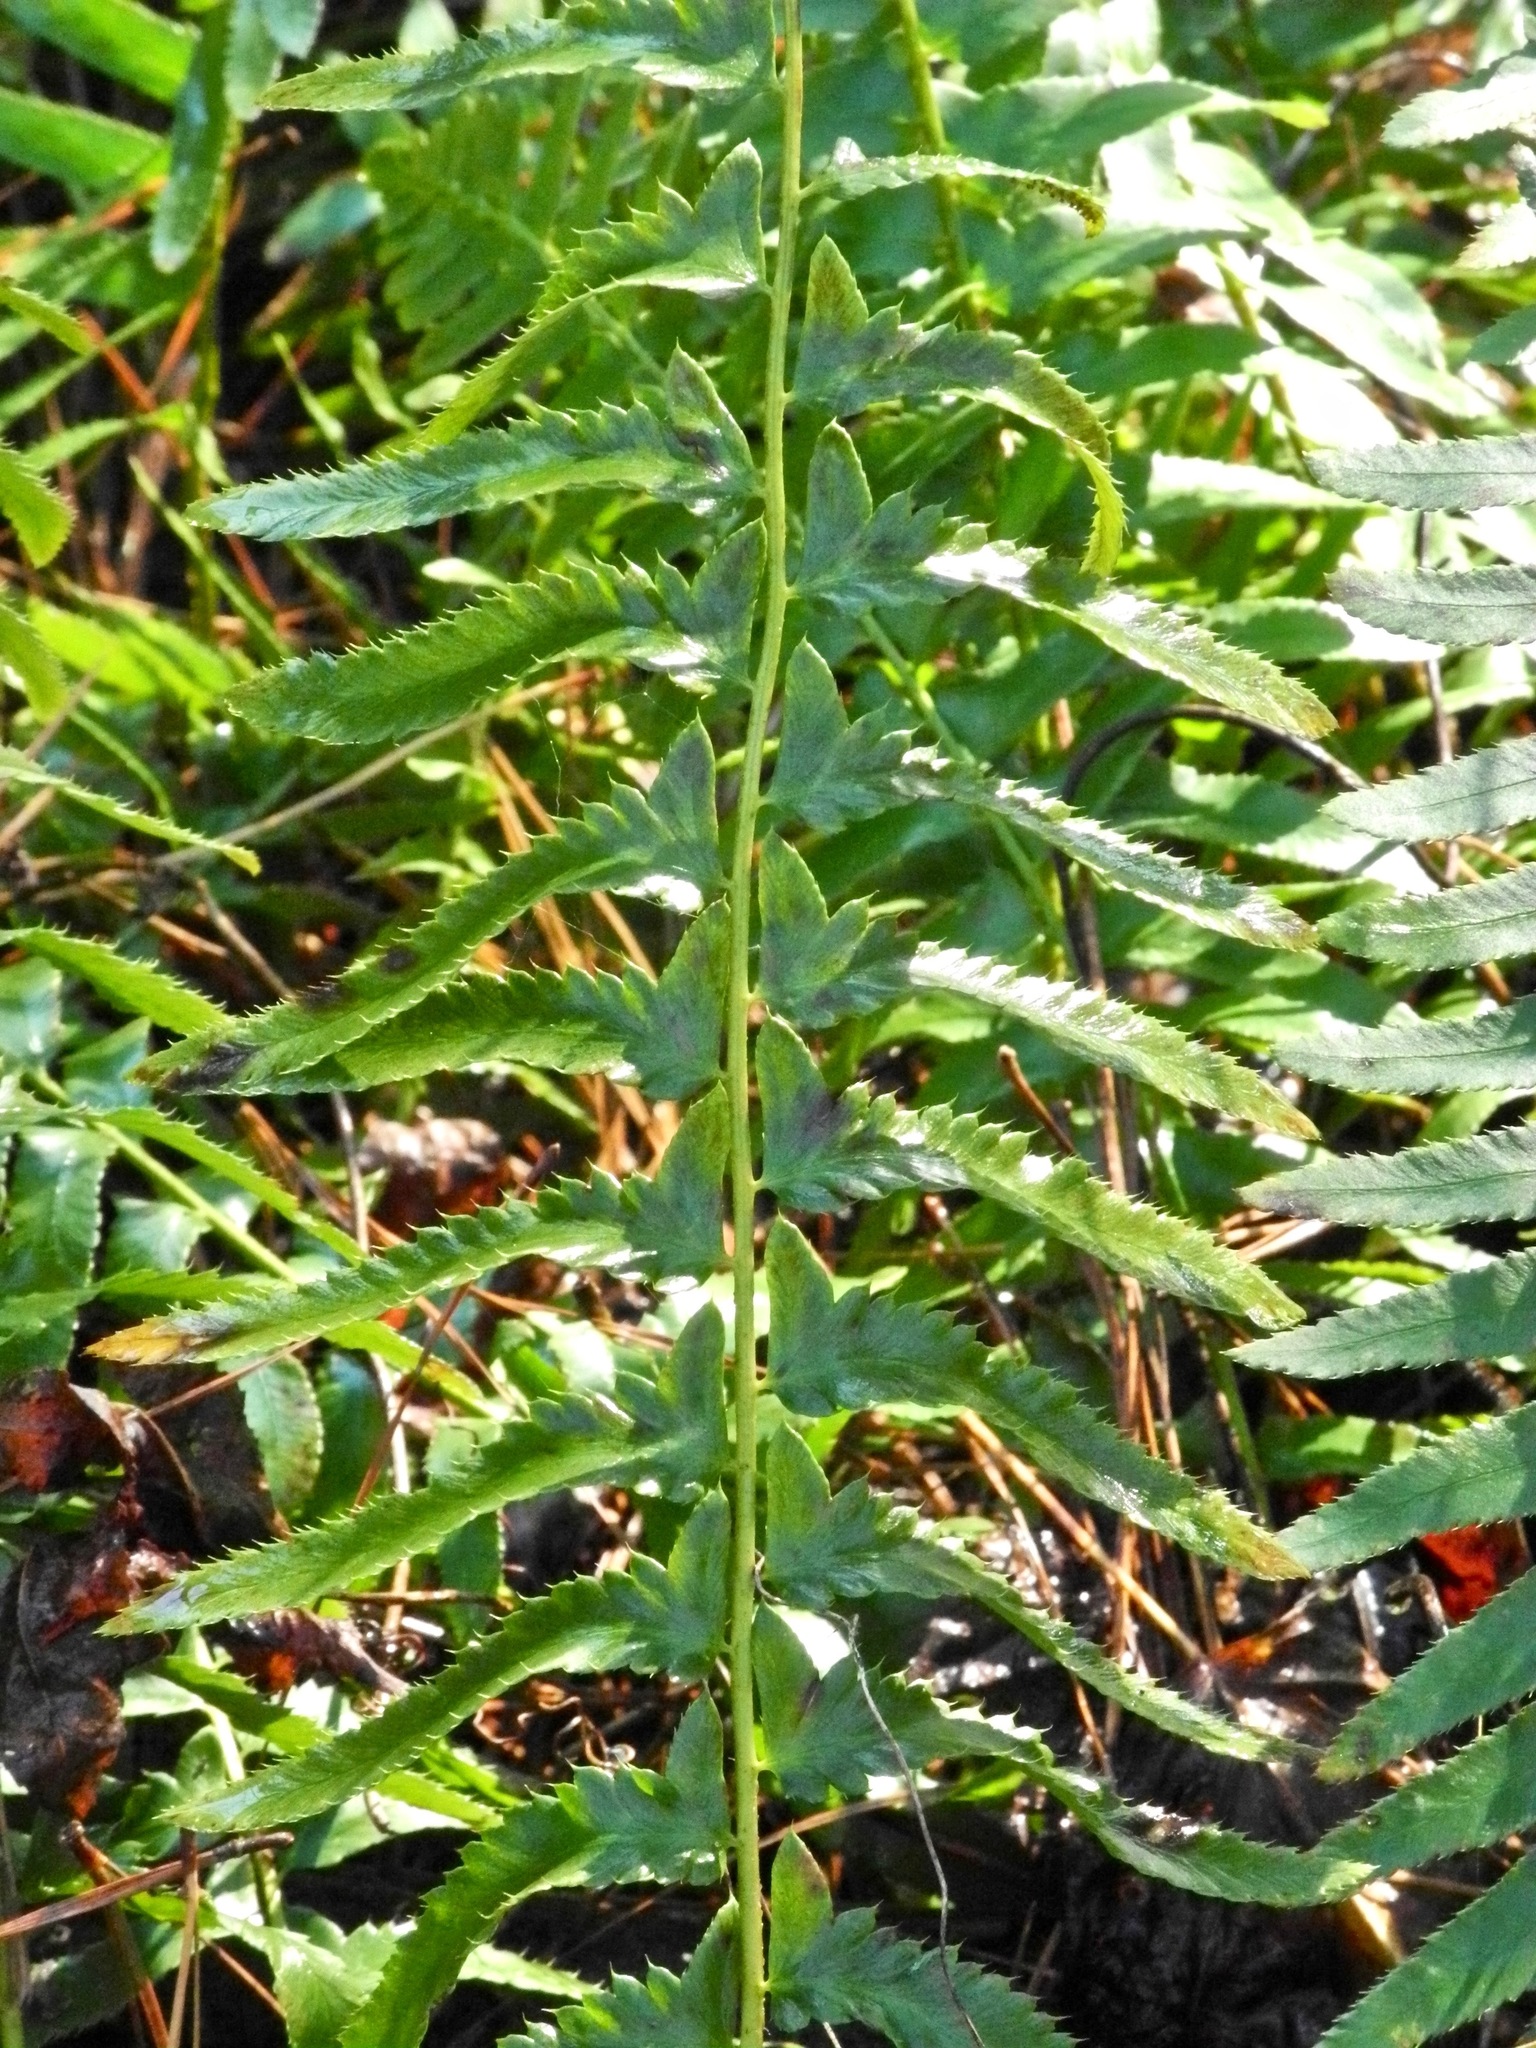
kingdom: Plantae
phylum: Tracheophyta
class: Polypodiopsida
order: Polypodiales
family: Dryopteridaceae
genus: Polystichum
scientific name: Polystichum acrostichoides
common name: Christmas fern
